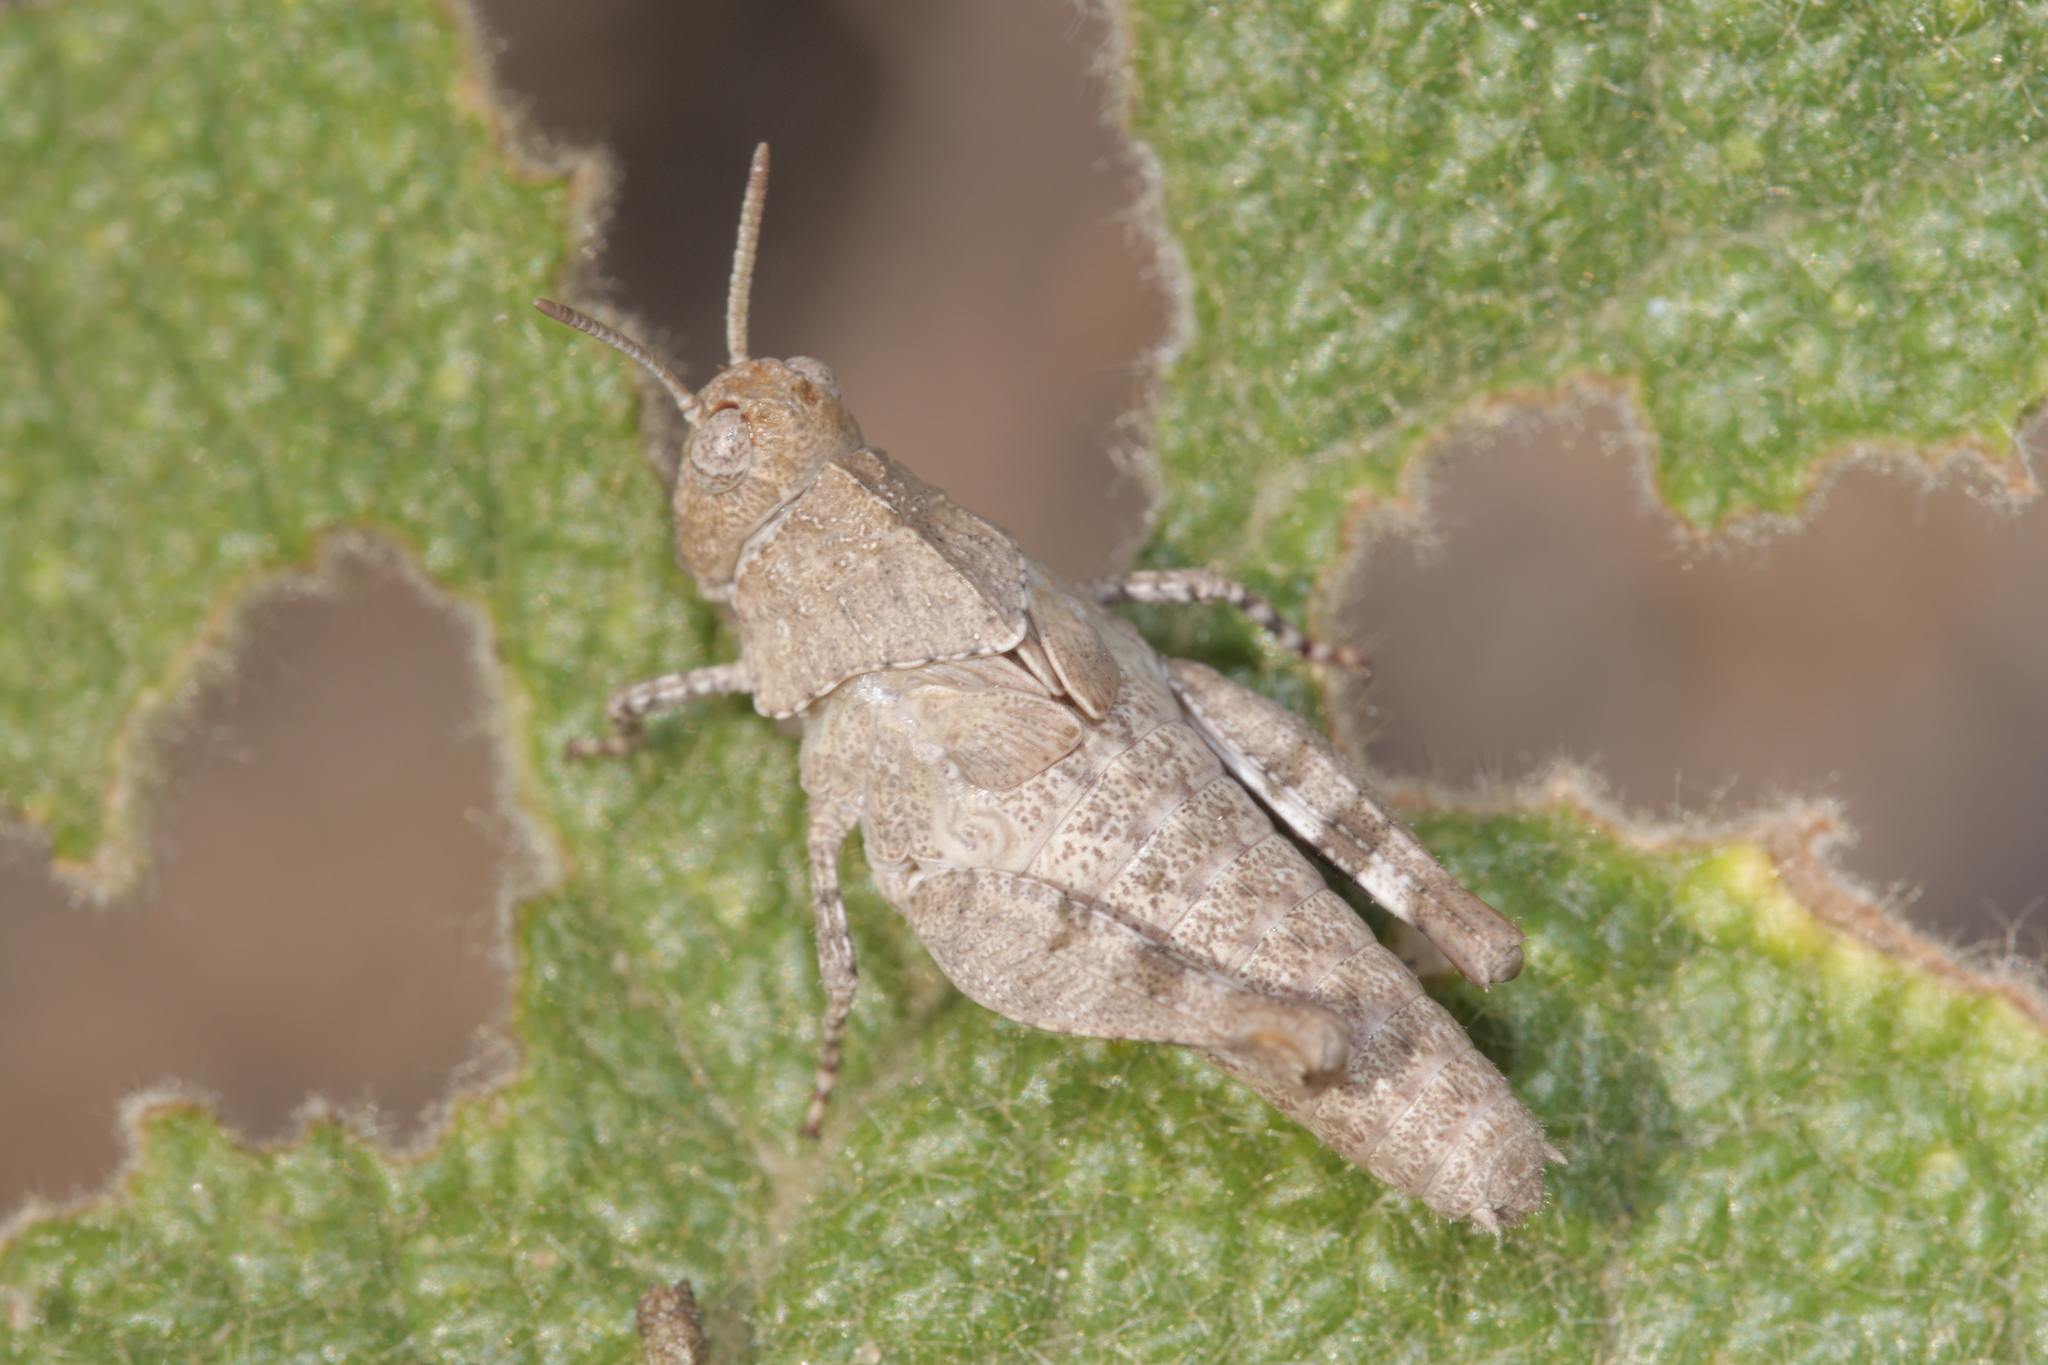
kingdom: Animalia
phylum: Arthropoda
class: Insecta
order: Orthoptera
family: Acrididae
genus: Oedipoda
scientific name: Oedipoda caerulescens
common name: Blue-winged grasshopper
